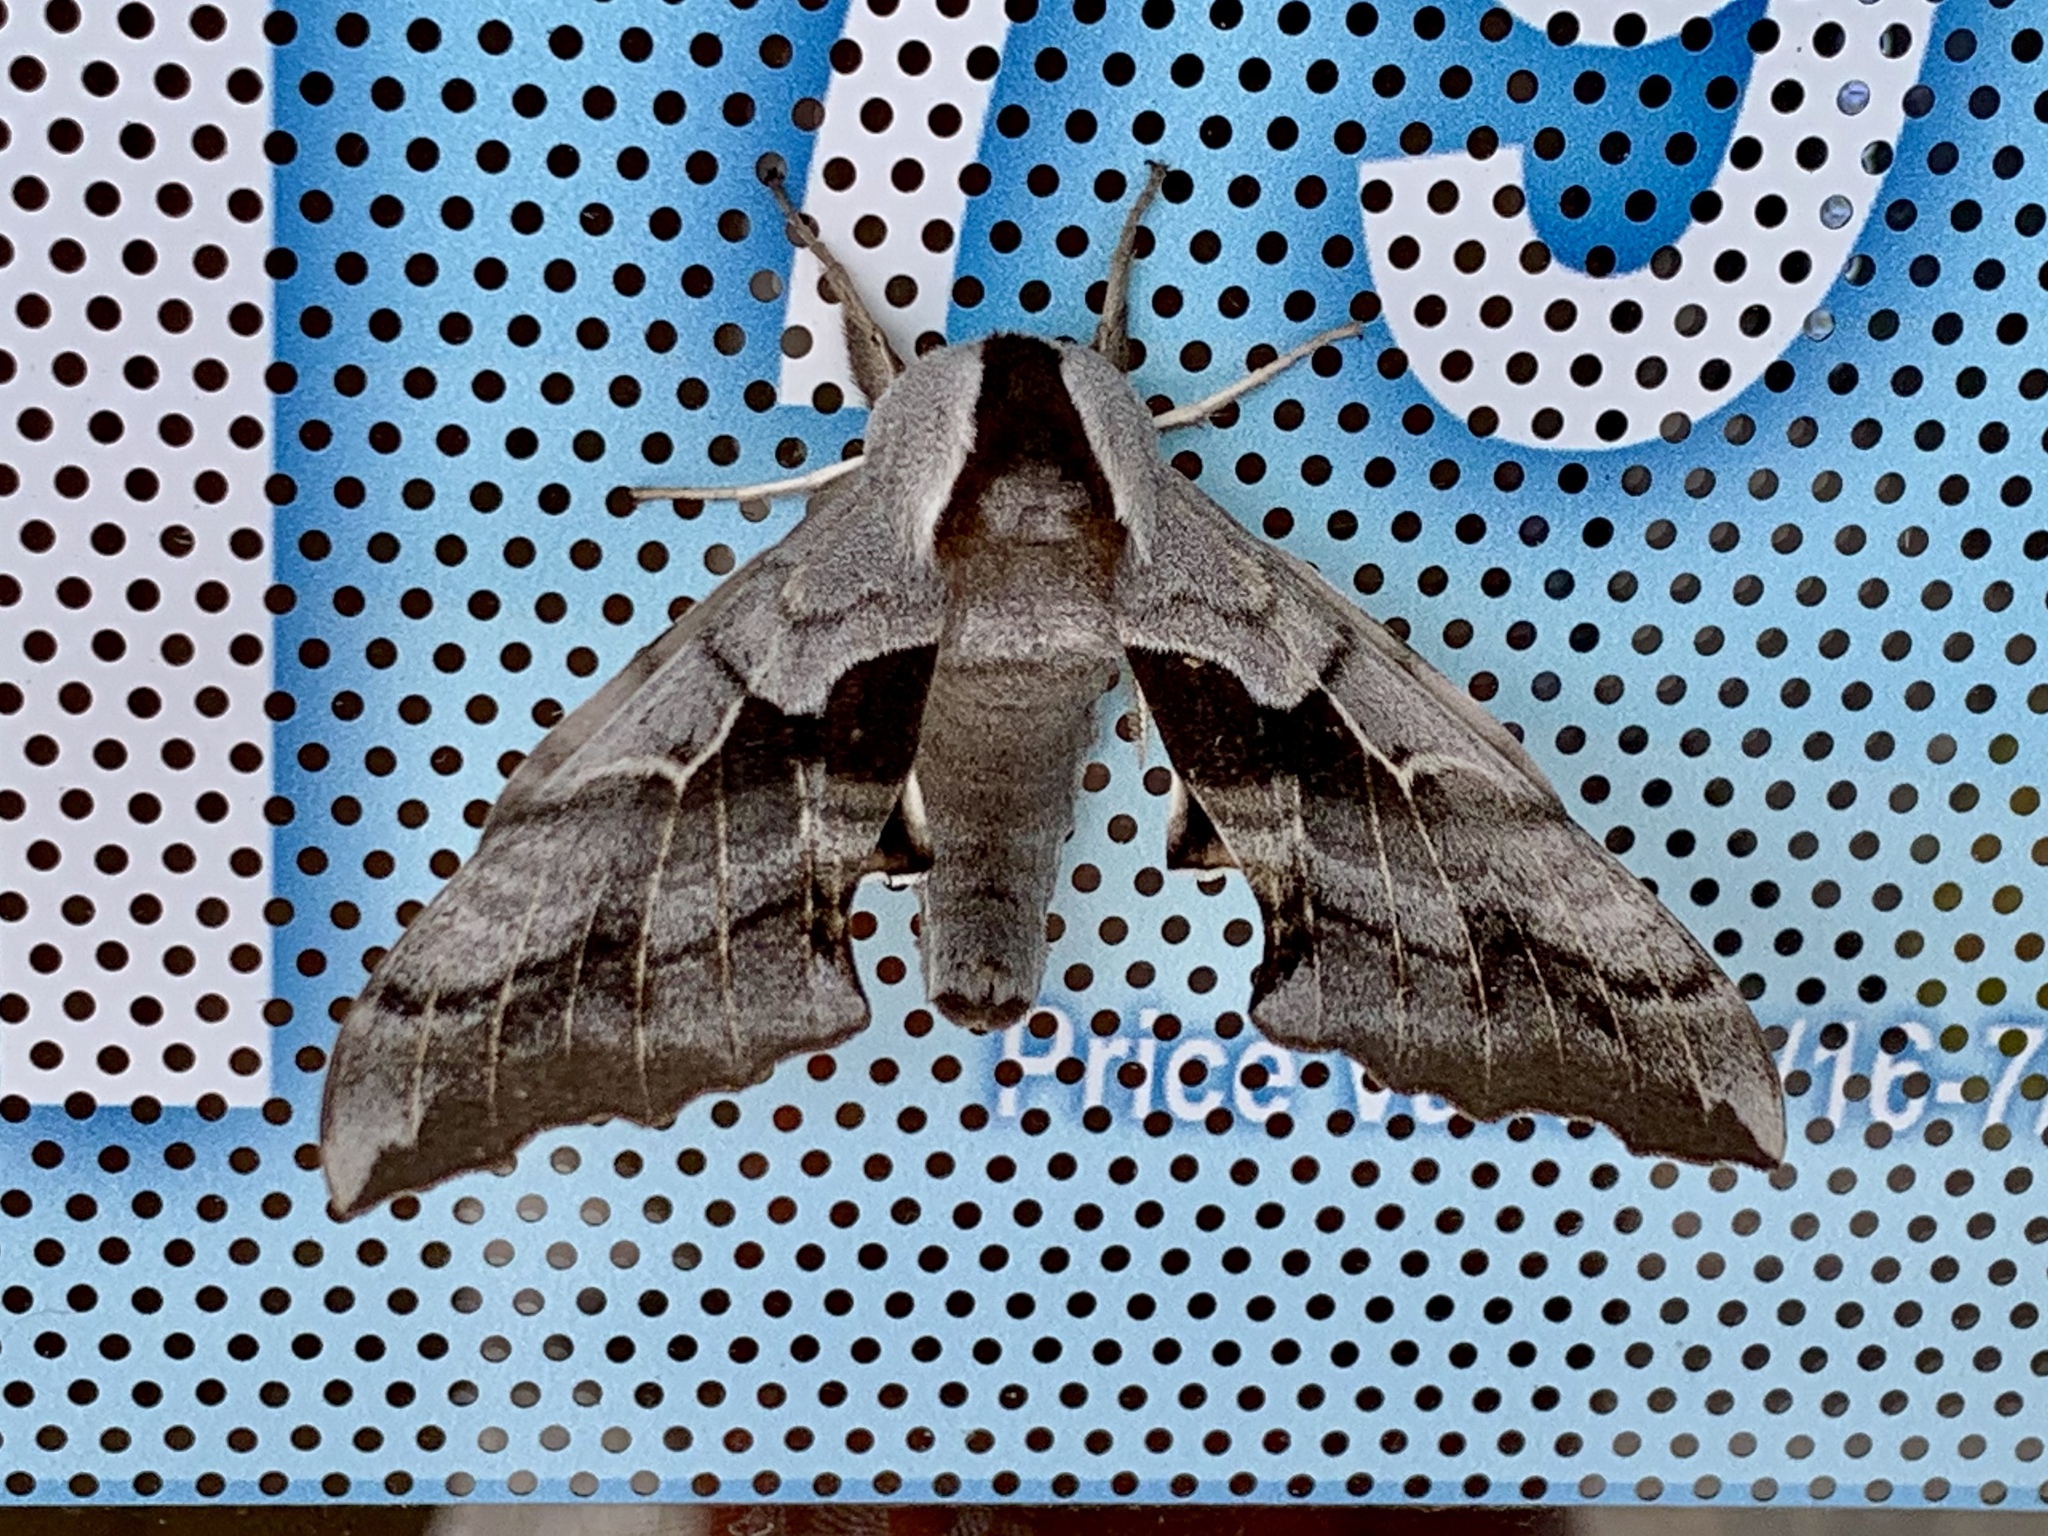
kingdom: Animalia
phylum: Arthropoda
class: Insecta
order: Lepidoptera
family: Sphingidae
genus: Smerinthus
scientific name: Smerinthus cerisyi
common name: Cerisy's sphinx moth
